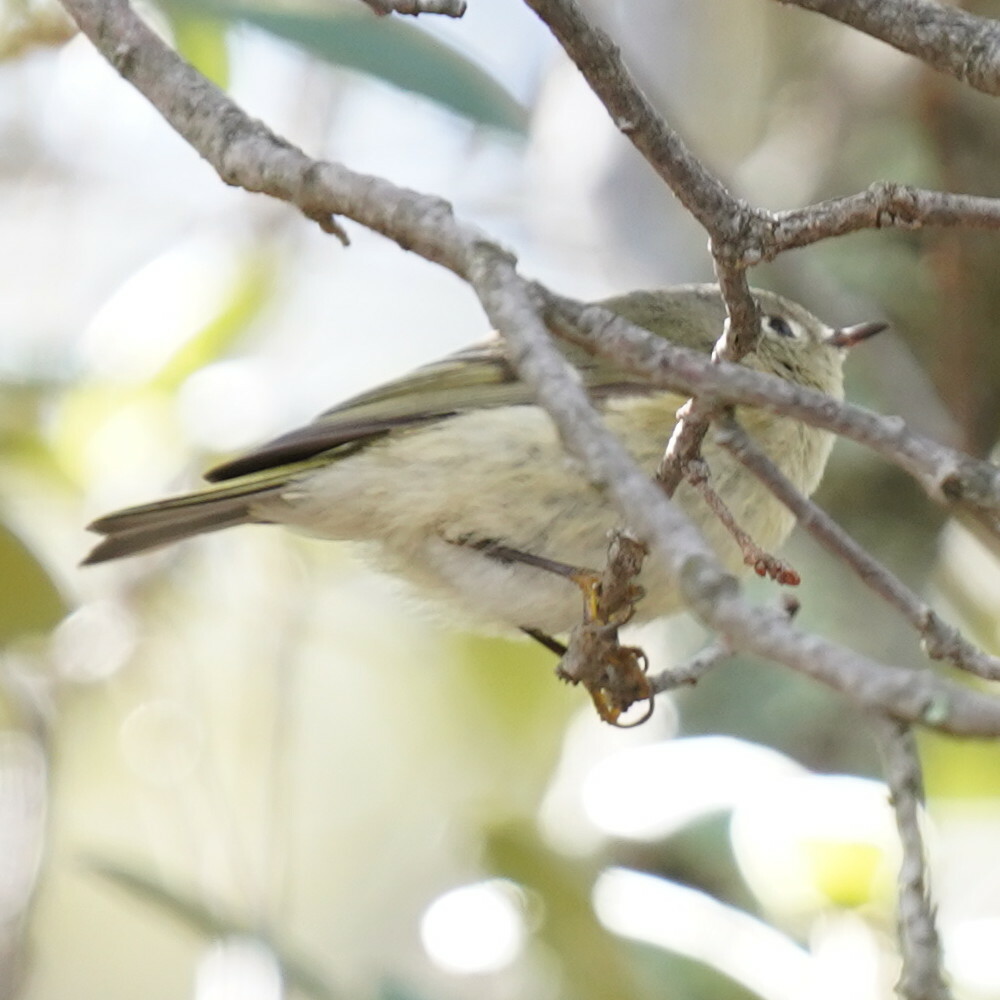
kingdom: Animalia
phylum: Chordata
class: Aves
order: Passeriformes
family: Regulidae
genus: Regulus
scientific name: Regulus calendula
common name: Ruby-crowned kinglet
